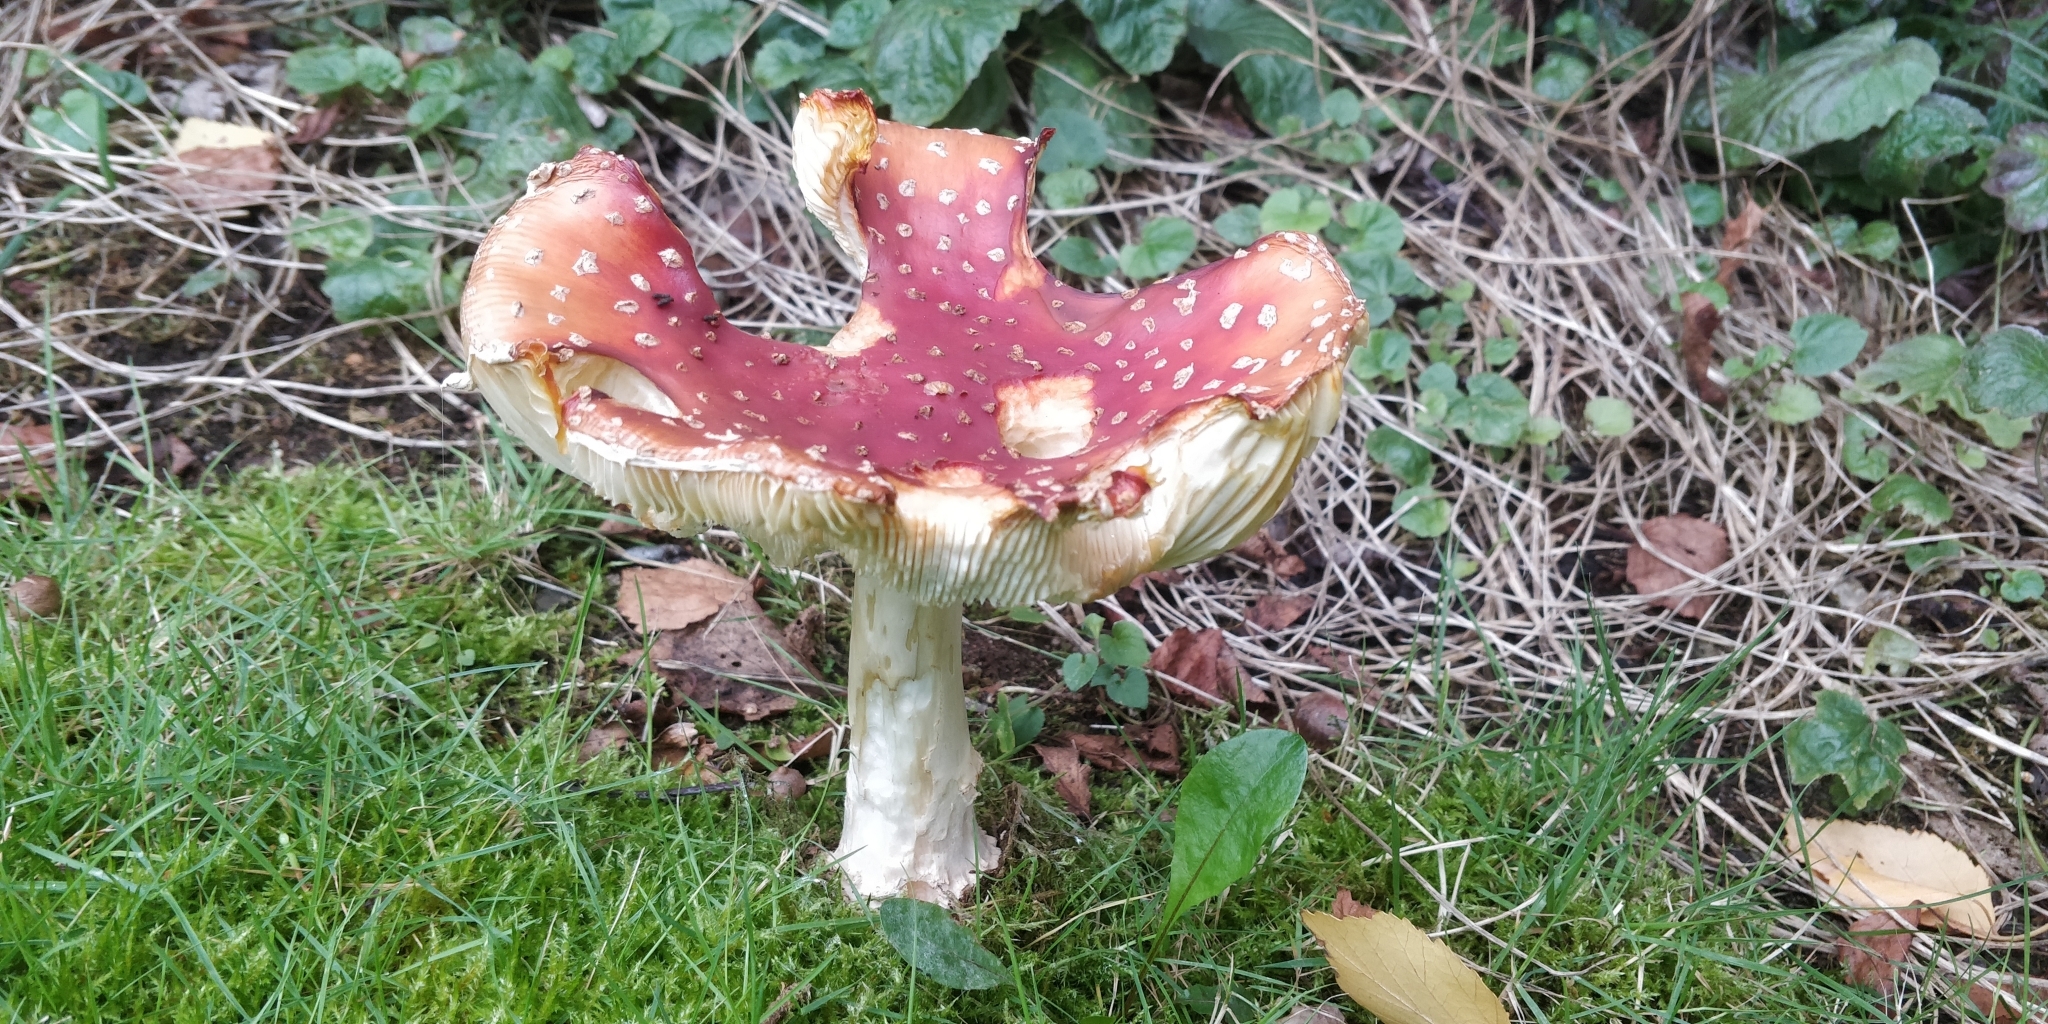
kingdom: Fungi
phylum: Basidiomycota
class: Agaricomycetes
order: Agaricales
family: Amanitaceae
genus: Amanita
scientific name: Amanita muscaria
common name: Fly agaric
